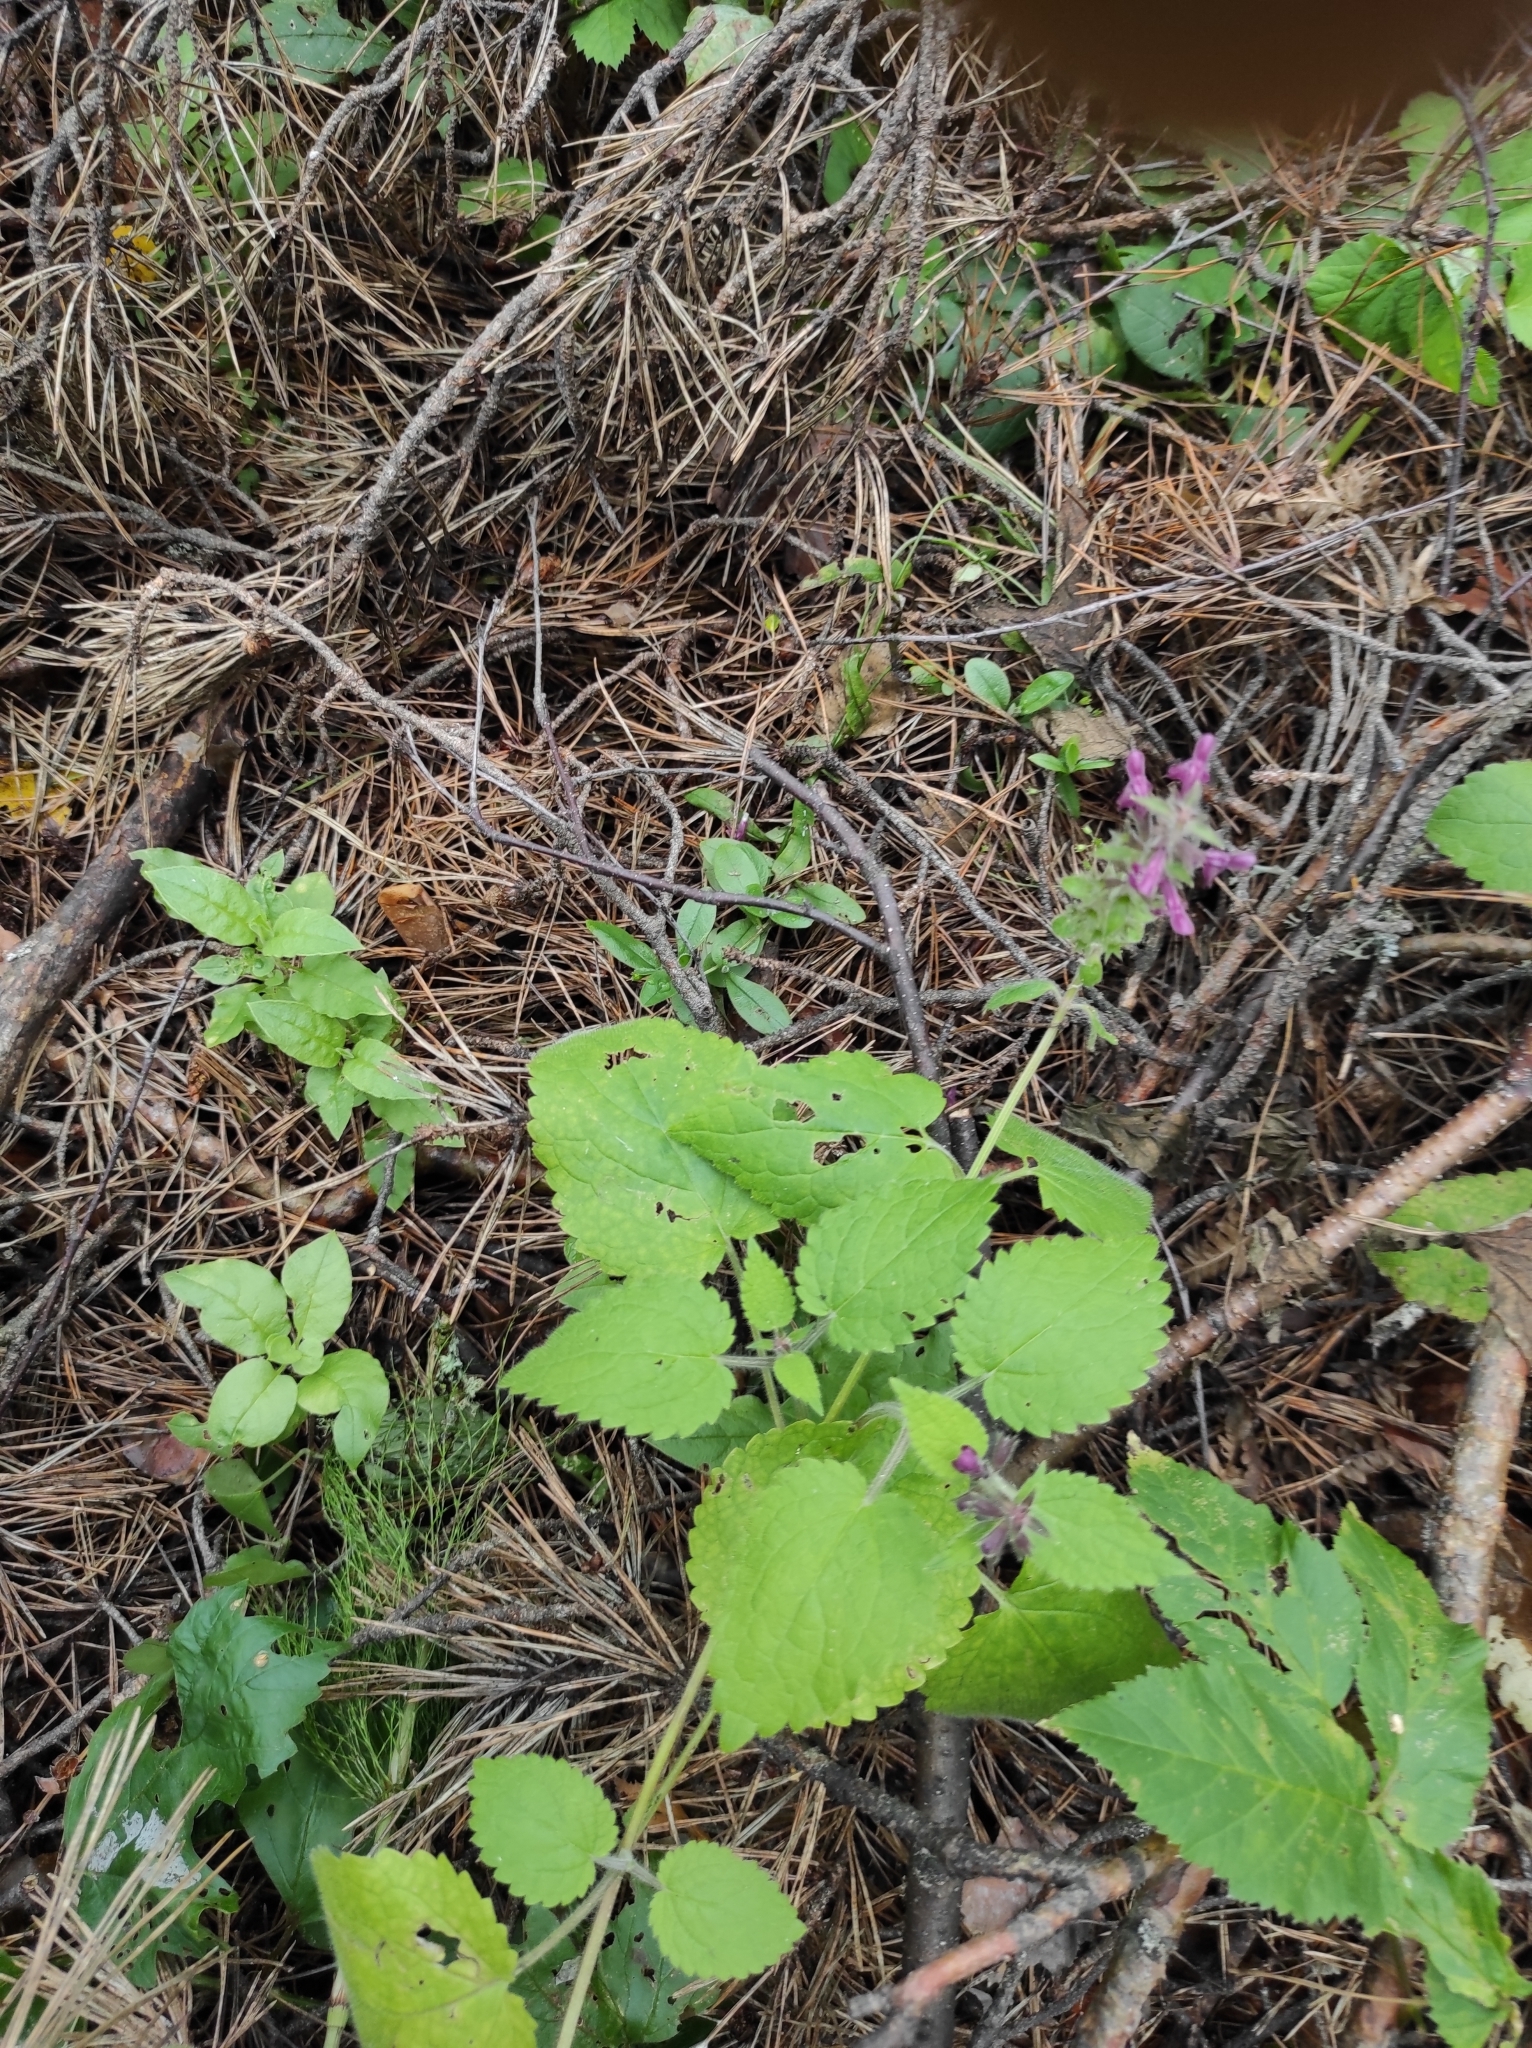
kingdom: Plantae
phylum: Tracheophyta
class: Magnoliopsida
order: Lamiales
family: Lamiaceae
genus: Stachys
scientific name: Stachys sylvatica
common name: Hedge woundwort
